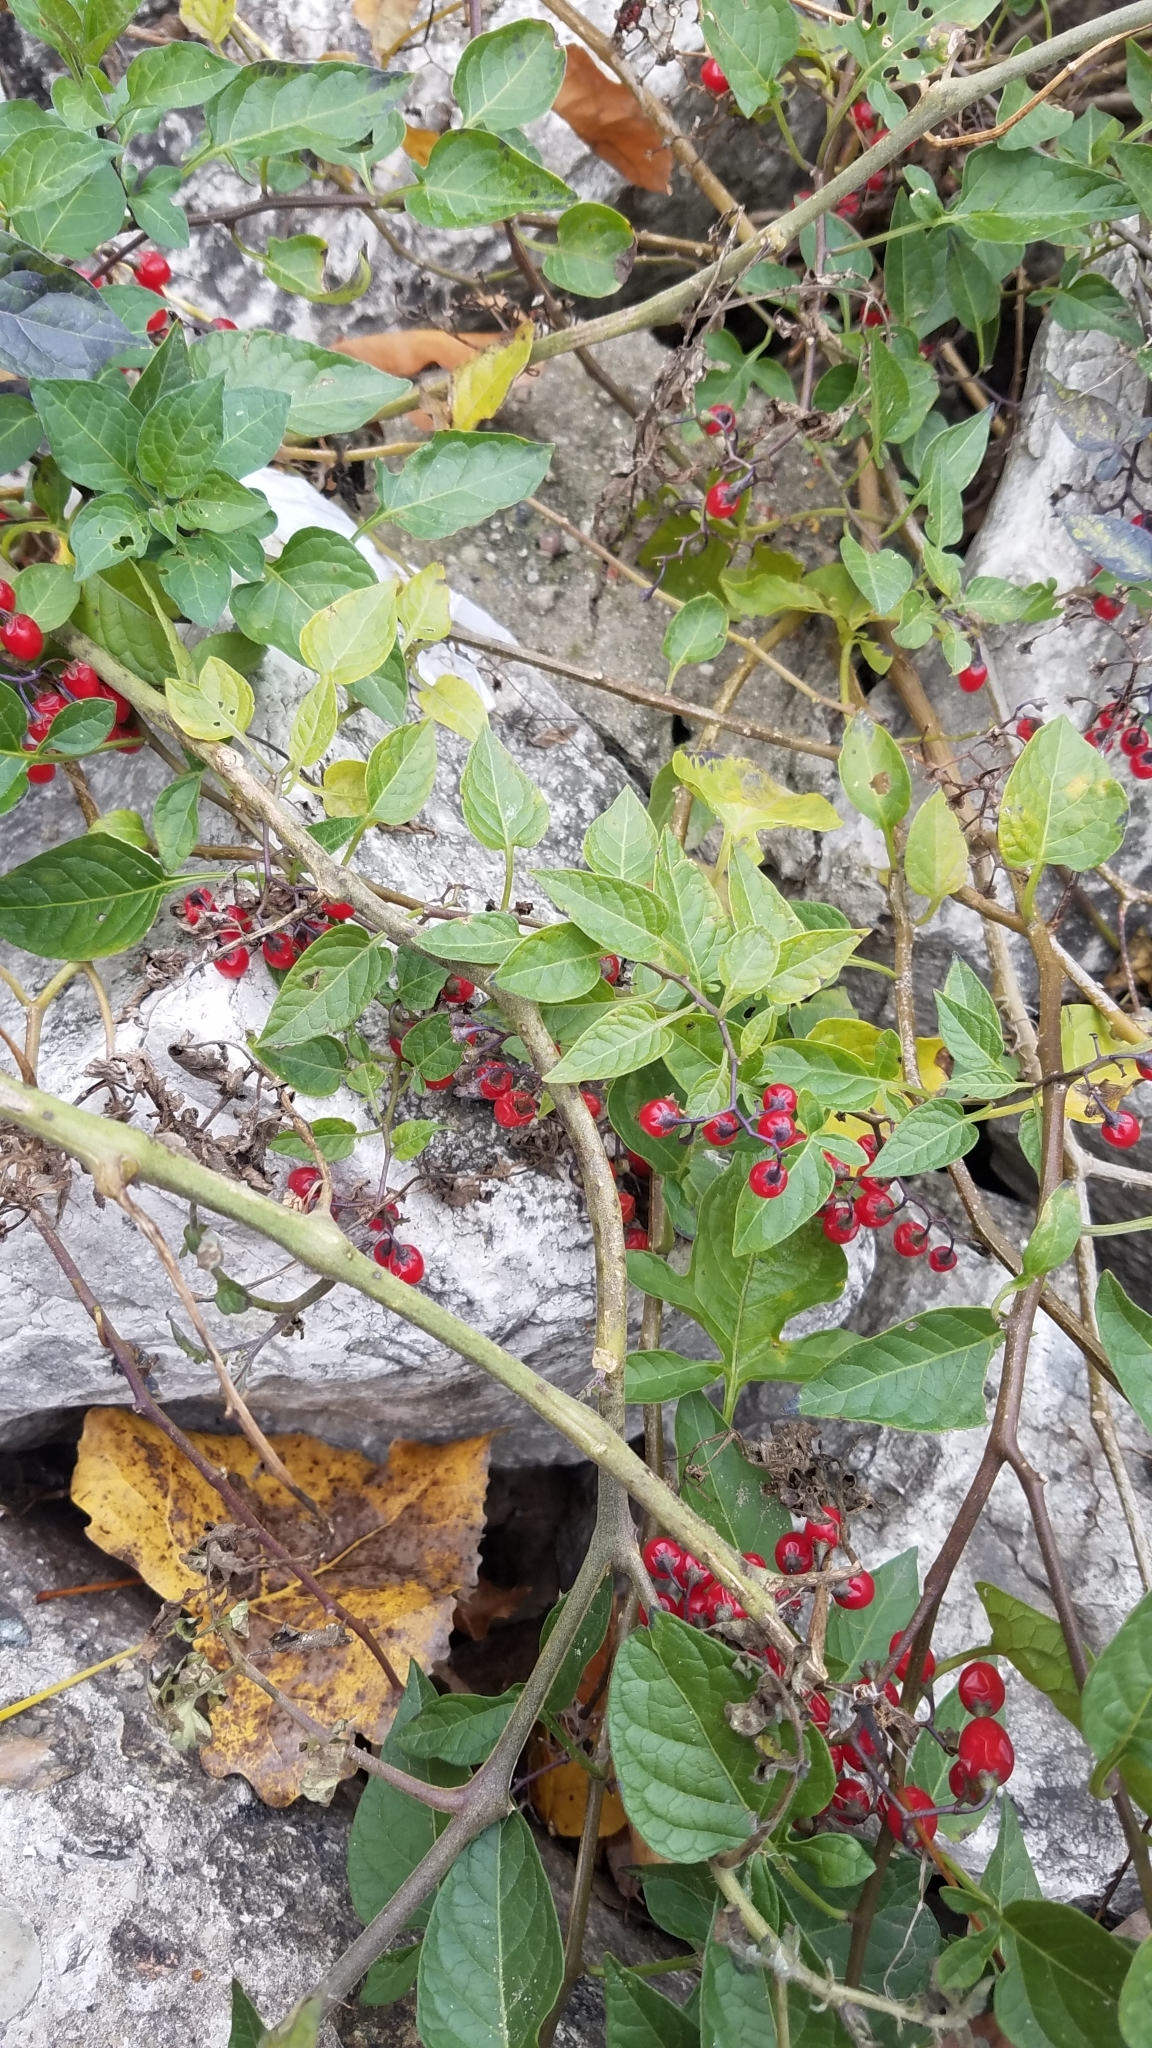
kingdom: Plantae
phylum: Tracheophyta
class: Magnoliopsida
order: Solanales
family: Solanaceae
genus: Solanum
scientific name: Solanum dulcamara
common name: Climbing nightshade
